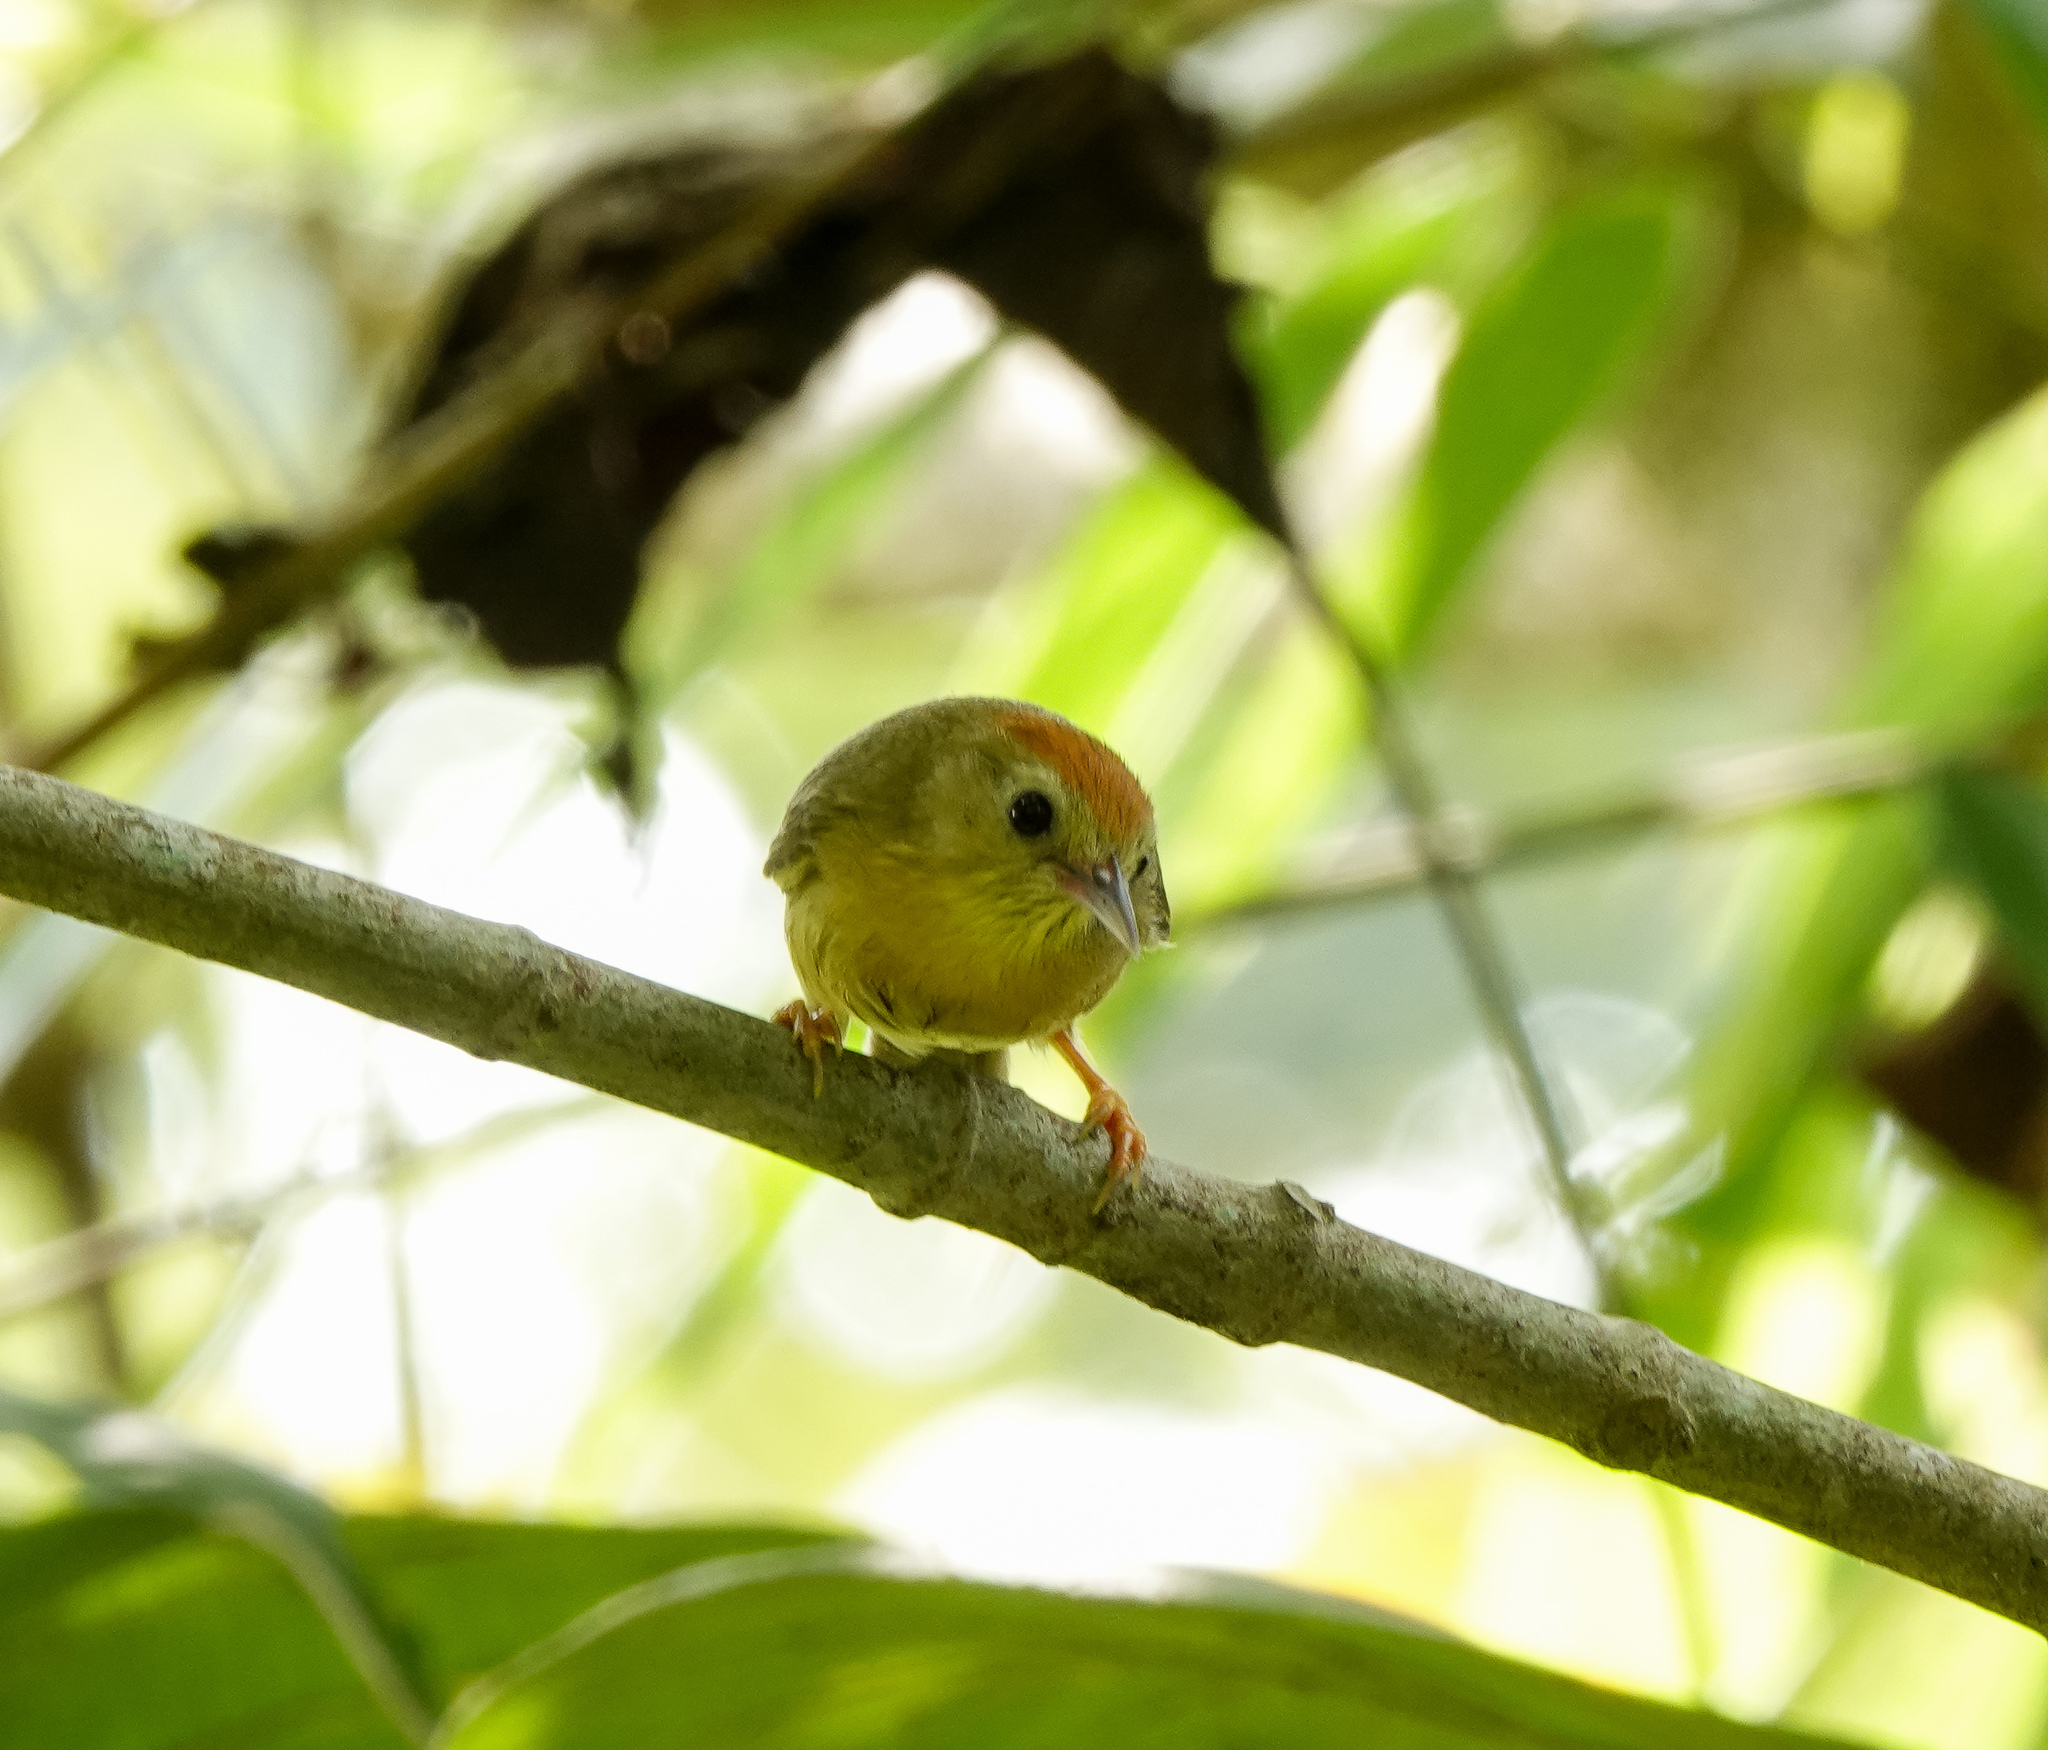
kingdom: Animalia
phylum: Chordata
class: Aves
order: Passeriformes
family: Timaliidae
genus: Stachyridopsis
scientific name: Stachyridopsis rufifrons
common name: Rufous-fronted babbler
